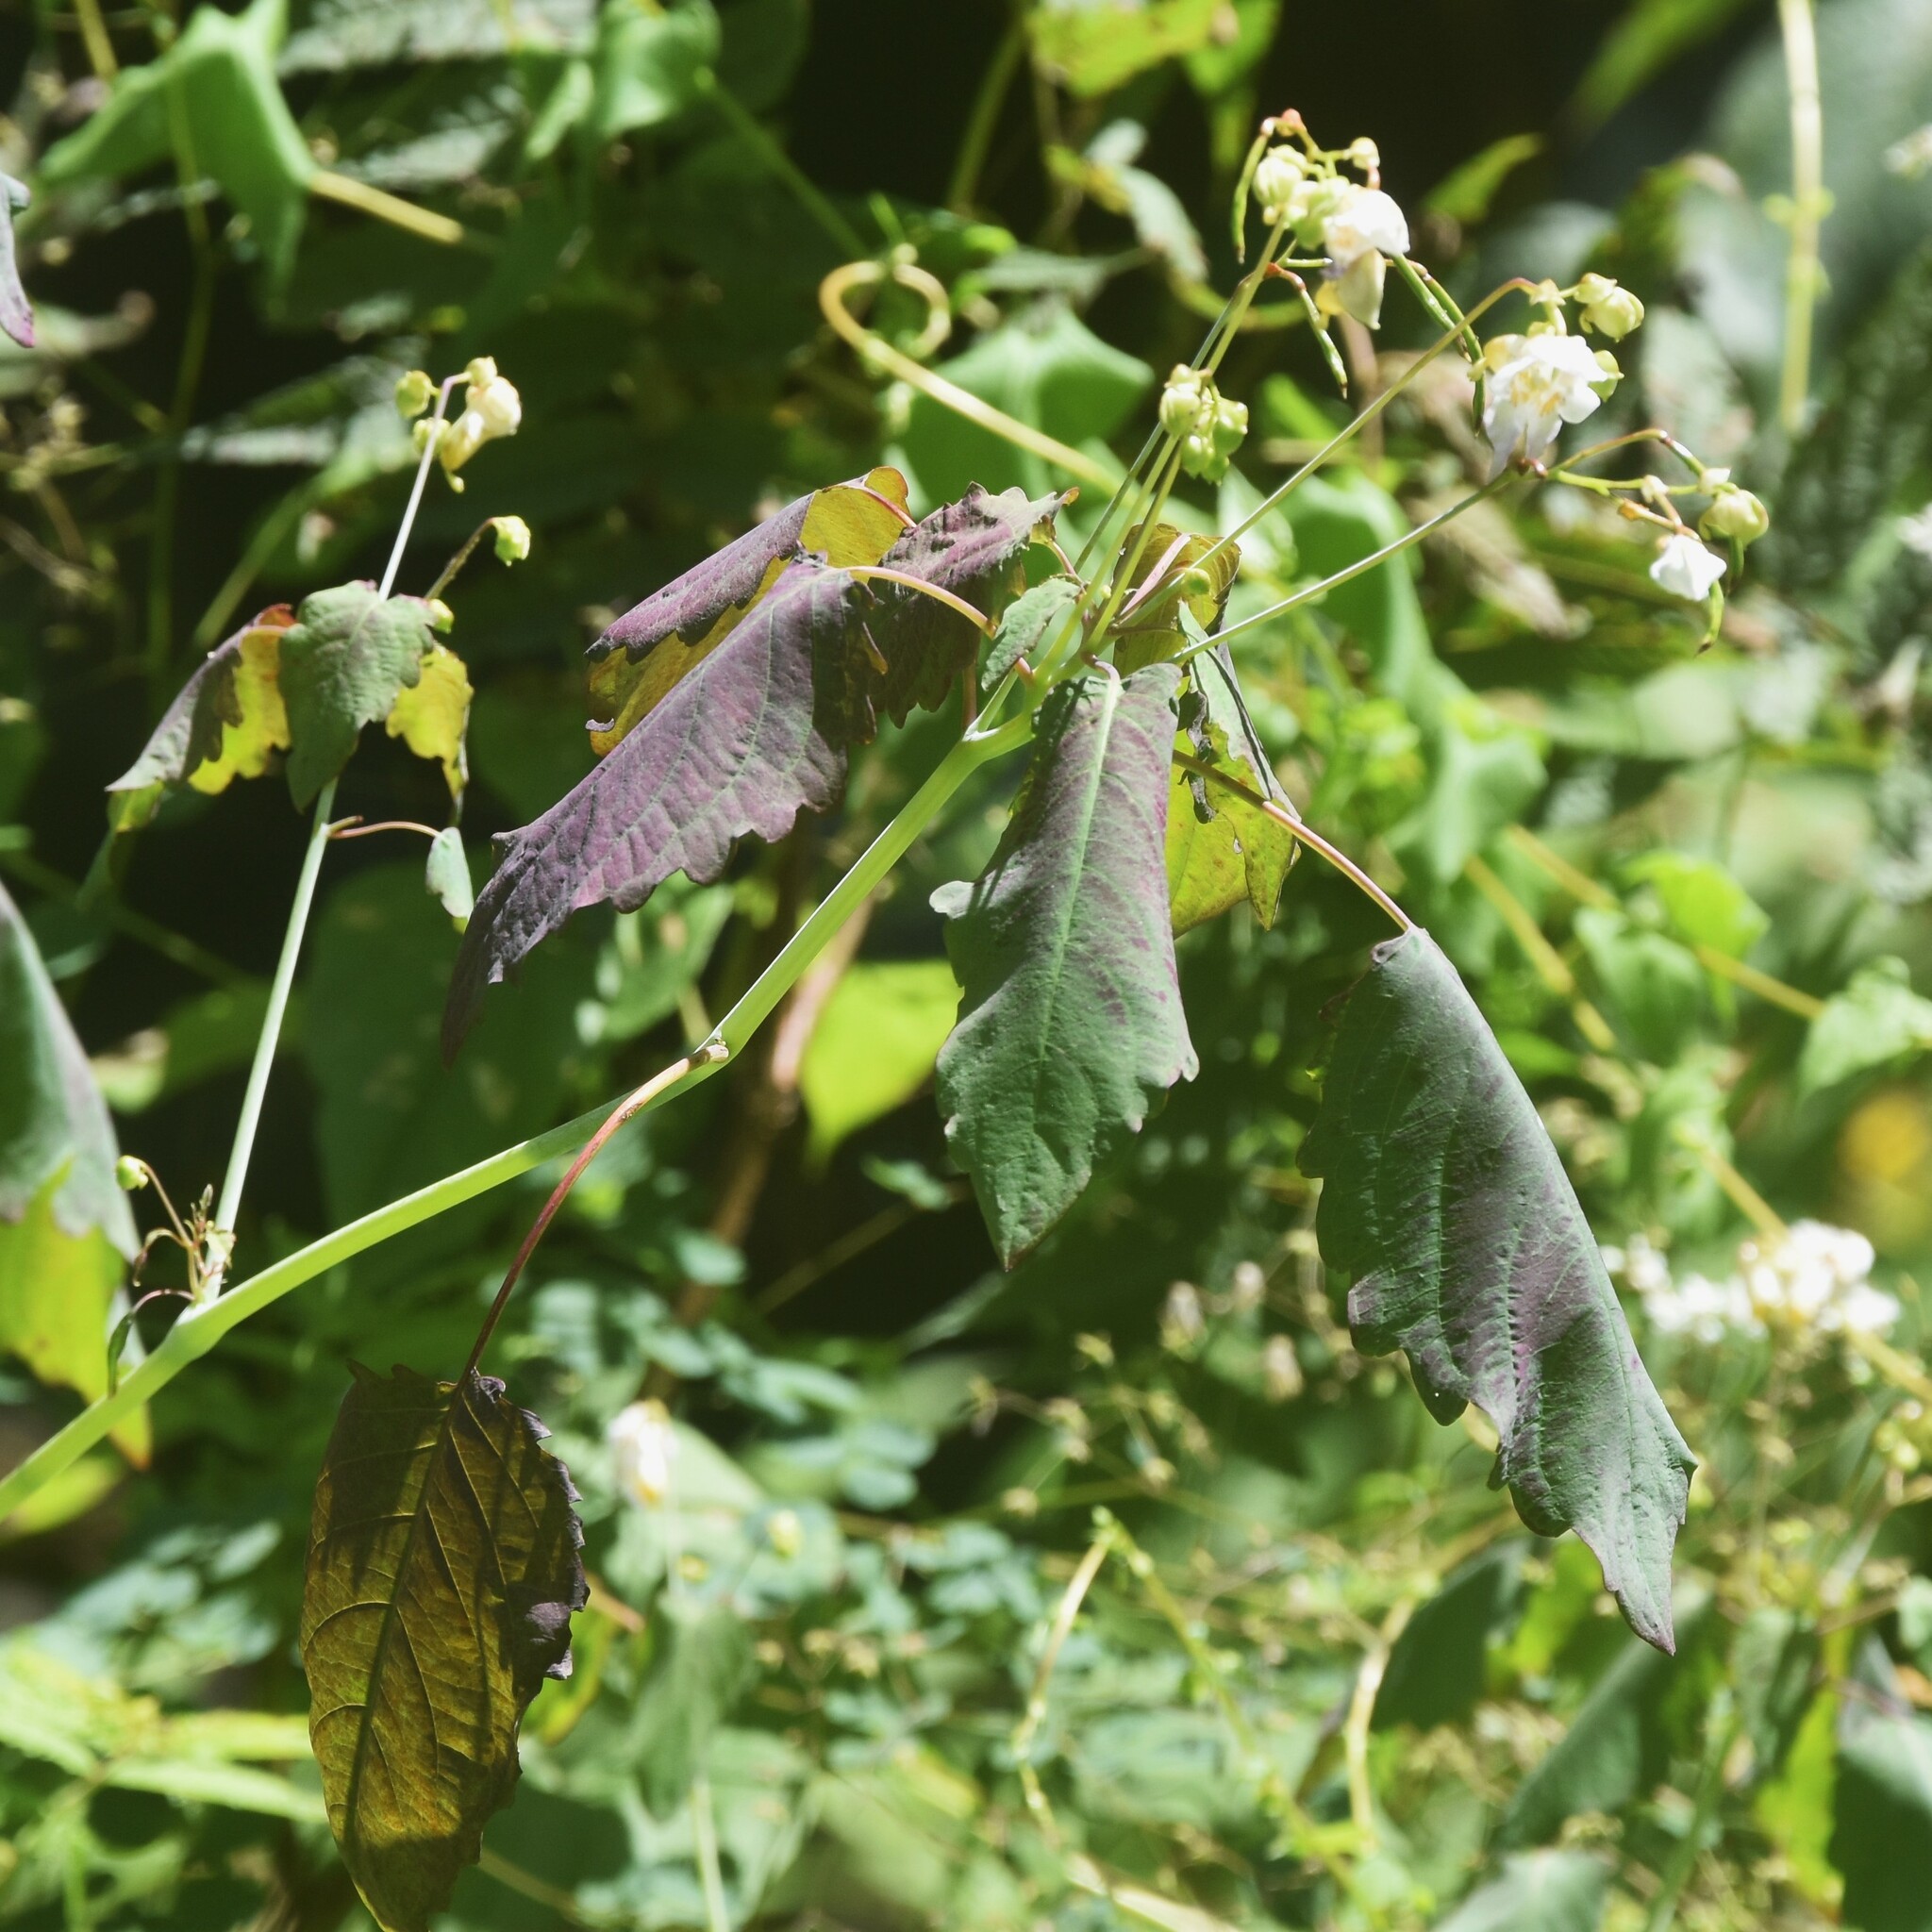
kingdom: Plantae
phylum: Tracheophyta
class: Magnoliopsida
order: Ericales
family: Balsaminaceae
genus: Impatiens
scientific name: Impatiens glauca
